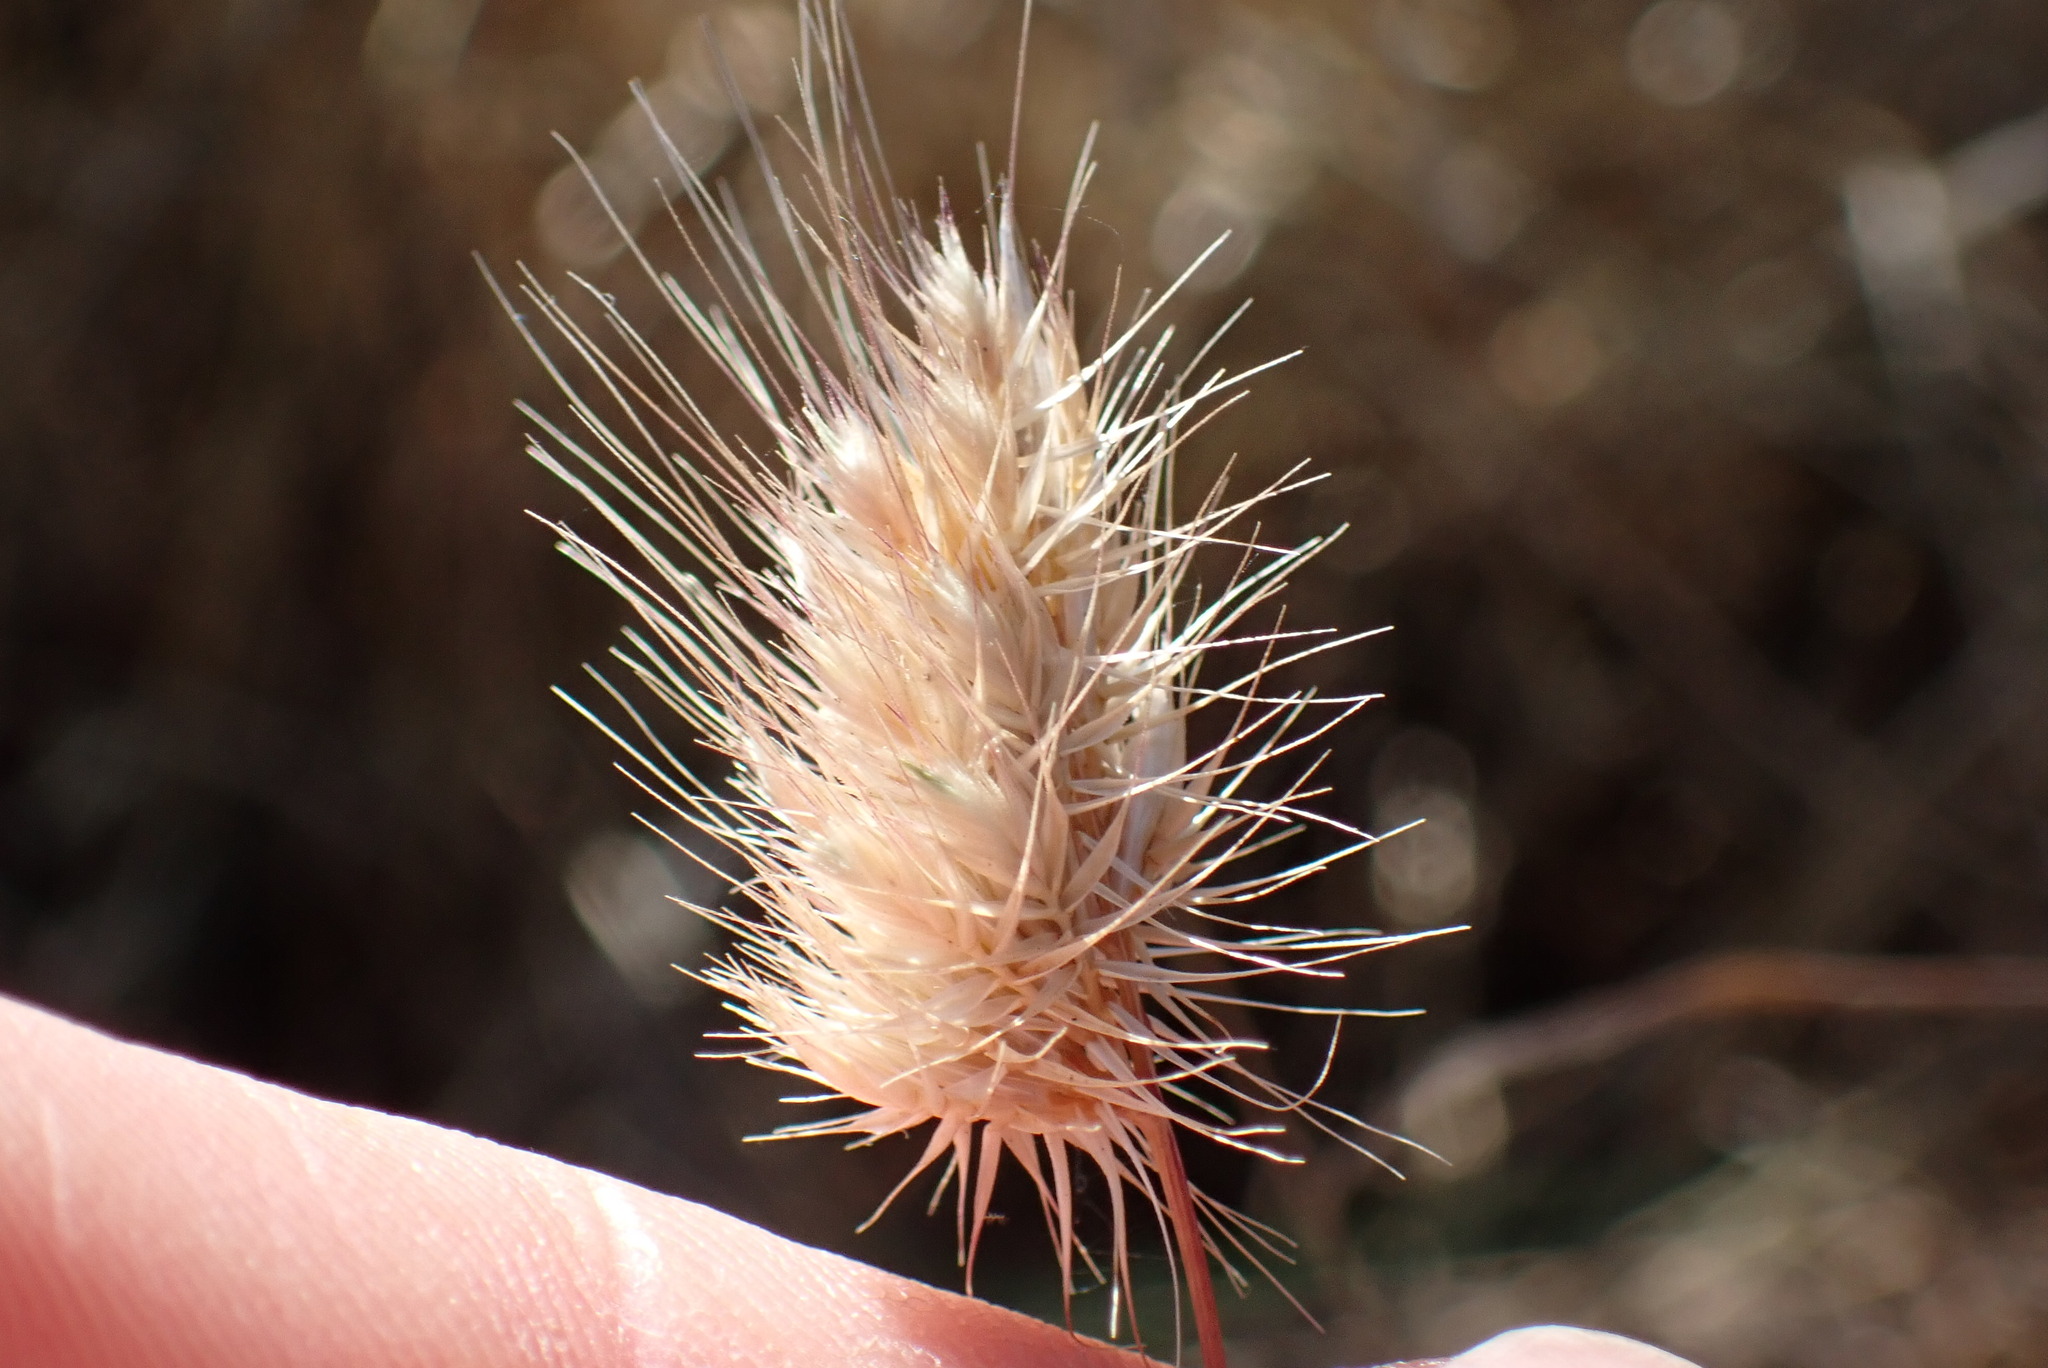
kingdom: Plantae
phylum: Tracheophyta
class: Liliopsida
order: Poales
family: Poaceae
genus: Cynosurus
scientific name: Cynosurus echinatus
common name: Rough dog's-tail
